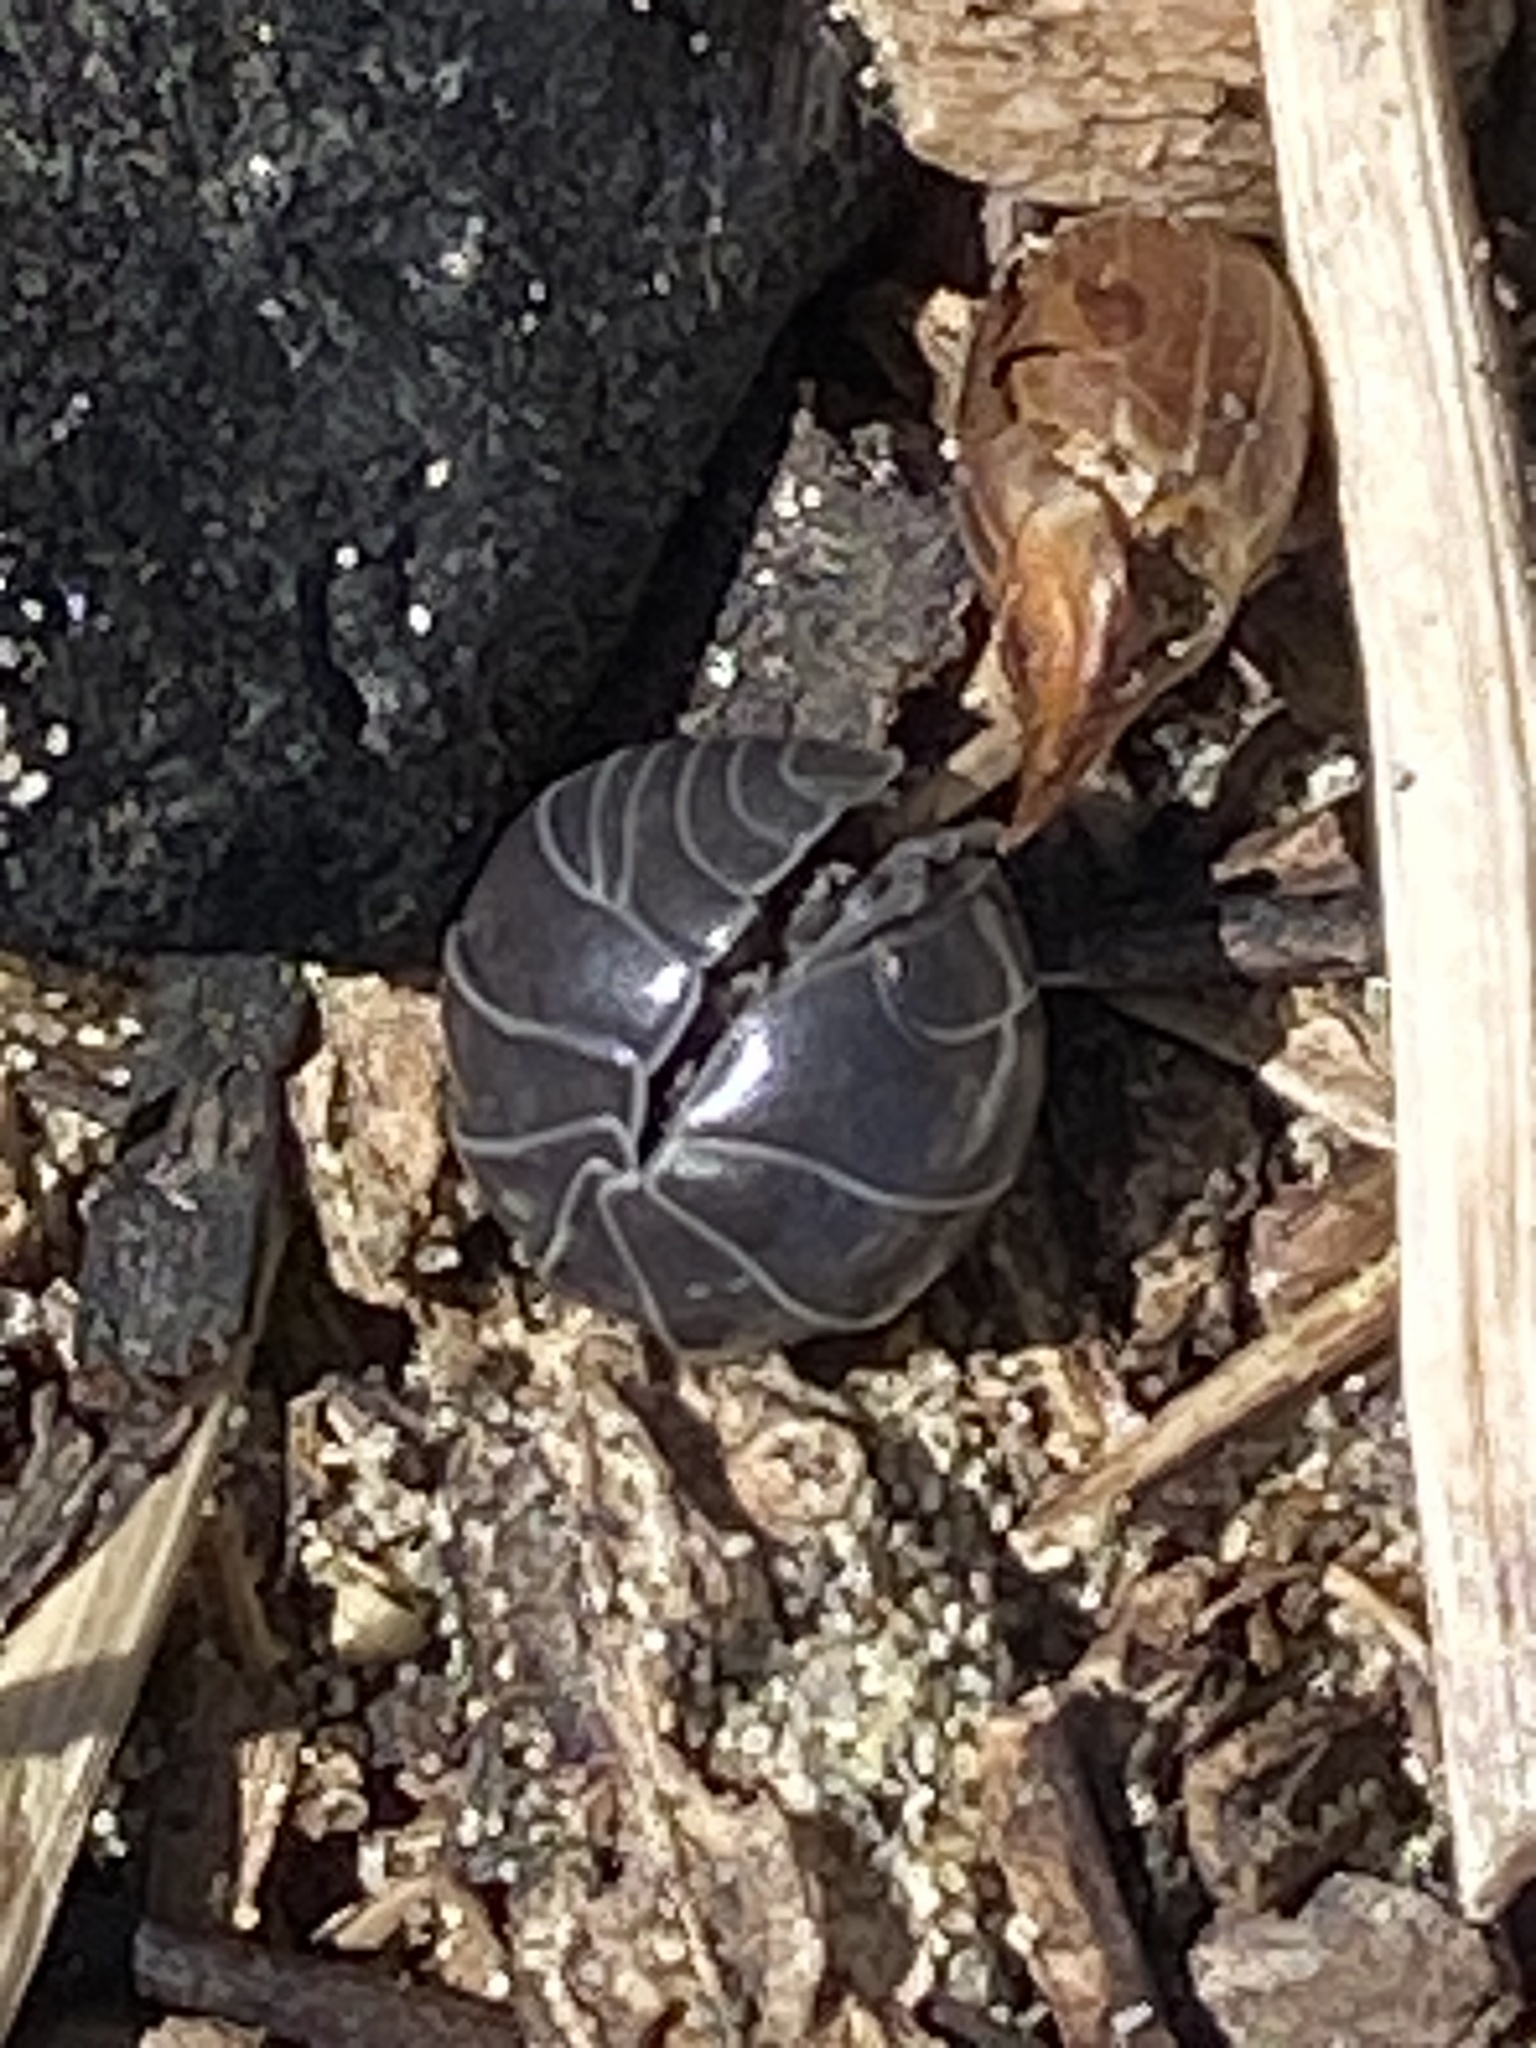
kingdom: Animalia
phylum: Arthropoda
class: Malacostraca
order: Isopoda
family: Armadillidiidae
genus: Armadillidium
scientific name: Armadillidium vulgare
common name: Common pill woodlouse
